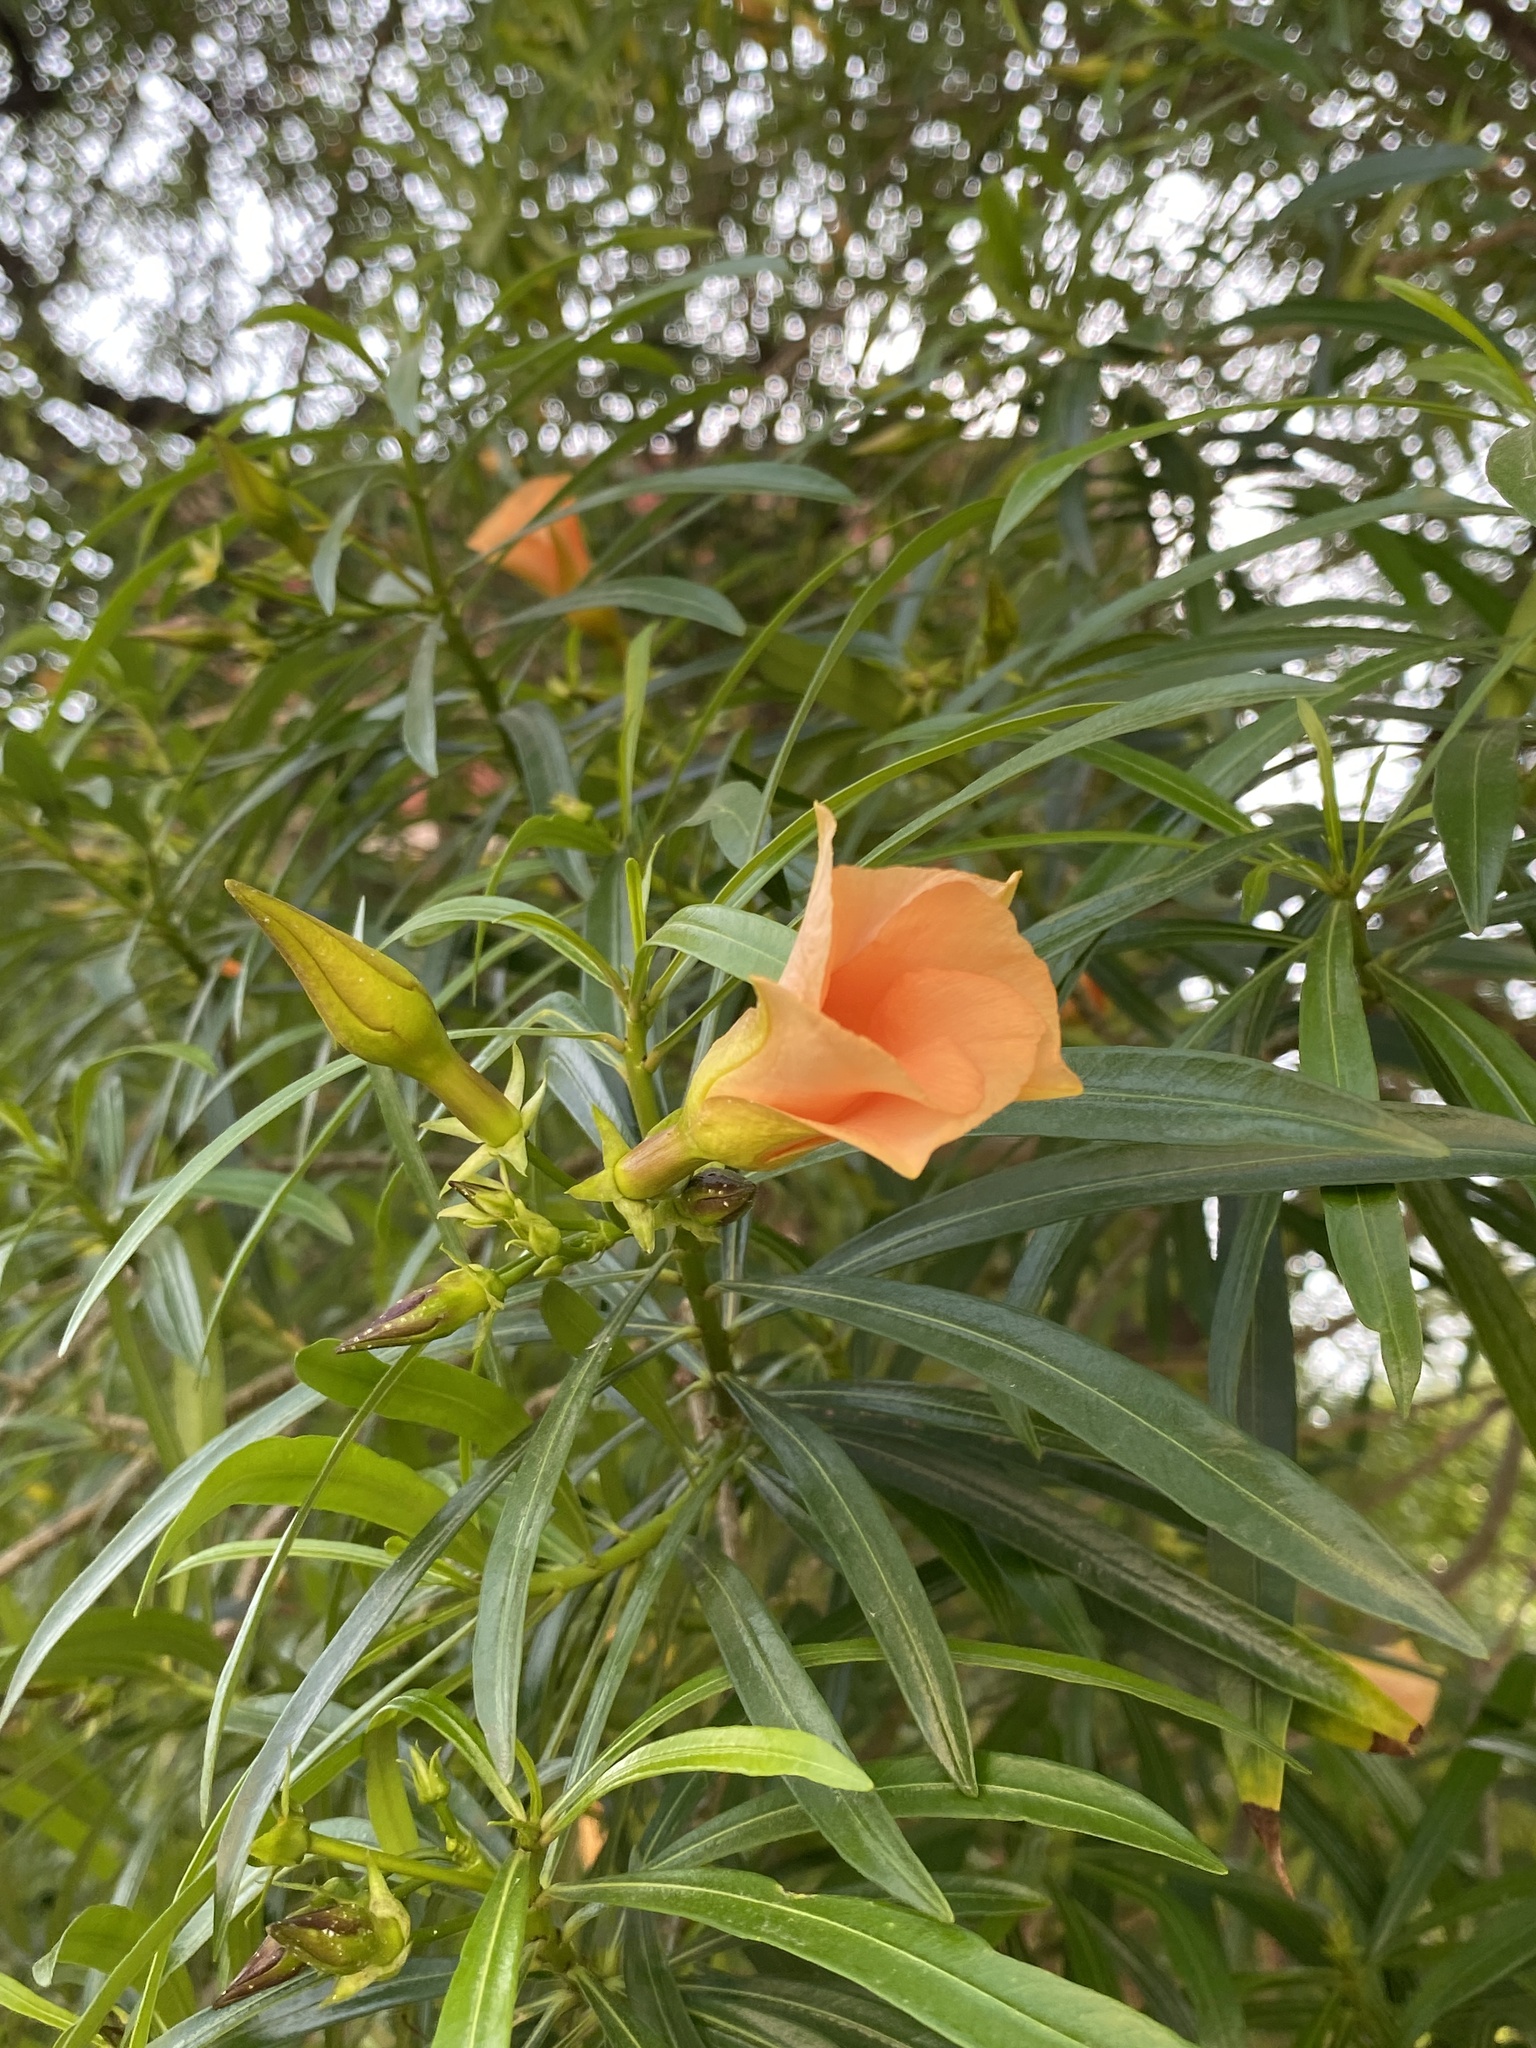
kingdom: Plantae
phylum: Tracheophyta
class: Magnoliopsida
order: Gentianales
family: Apocynaceae
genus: Cascabela
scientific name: Cascabela thevetia
